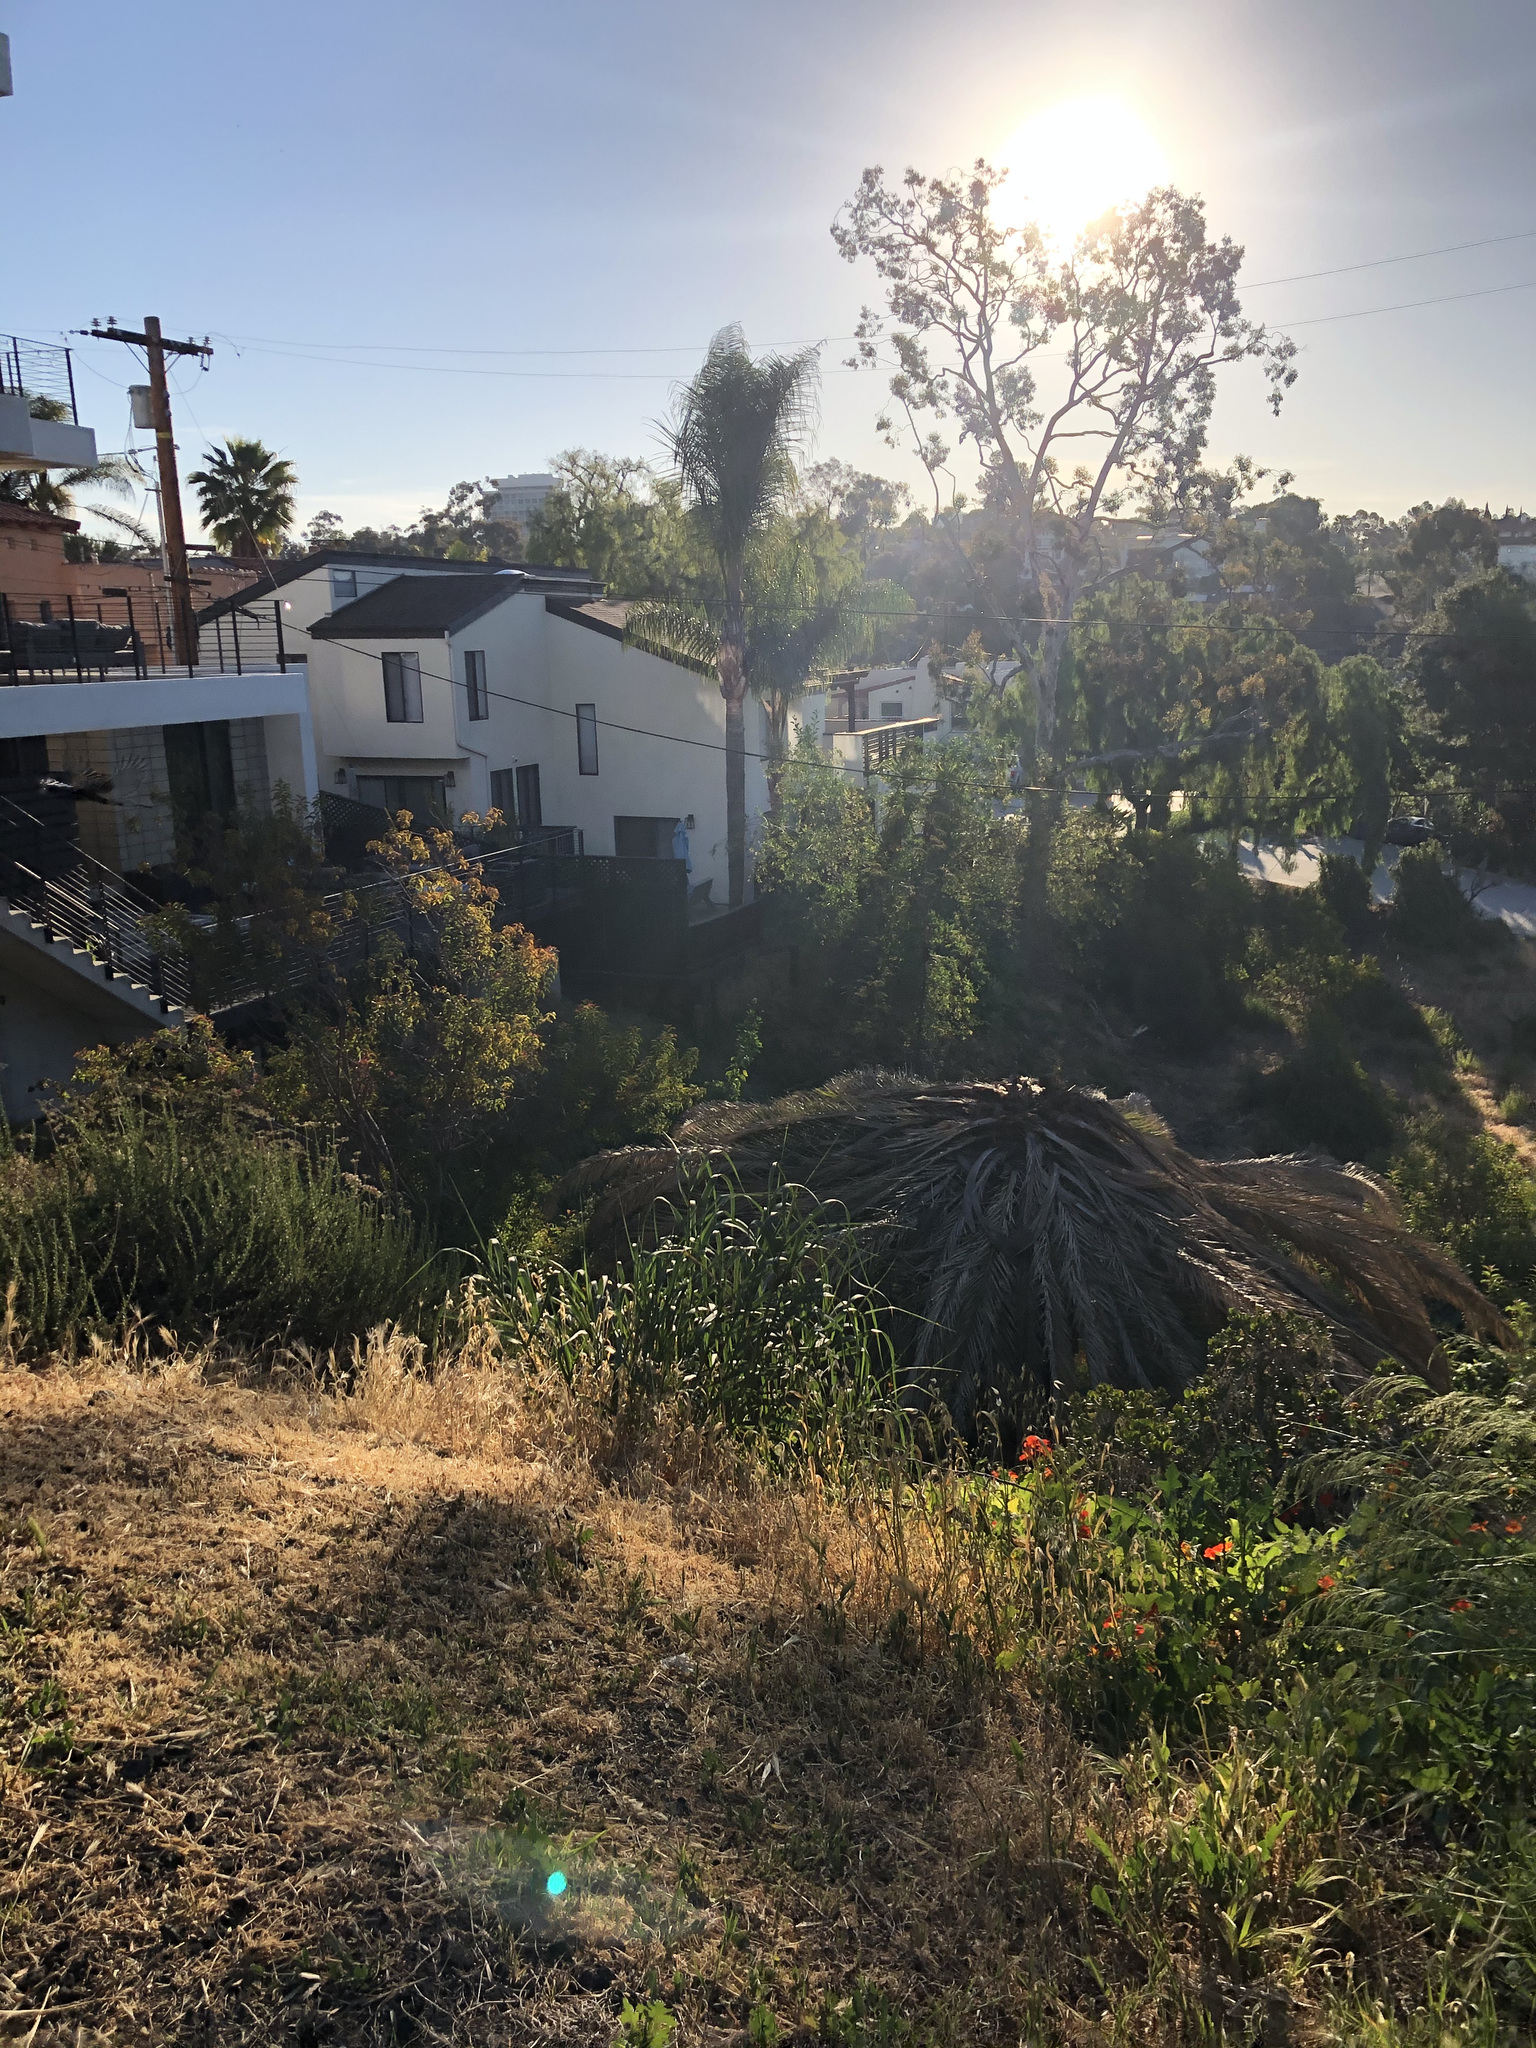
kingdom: Plantae
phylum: Tracheophyta
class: Liliopsida
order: Arecales
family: Arecaceae
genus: Phoenix
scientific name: Phoenix canariensis
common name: Canary island date palm
